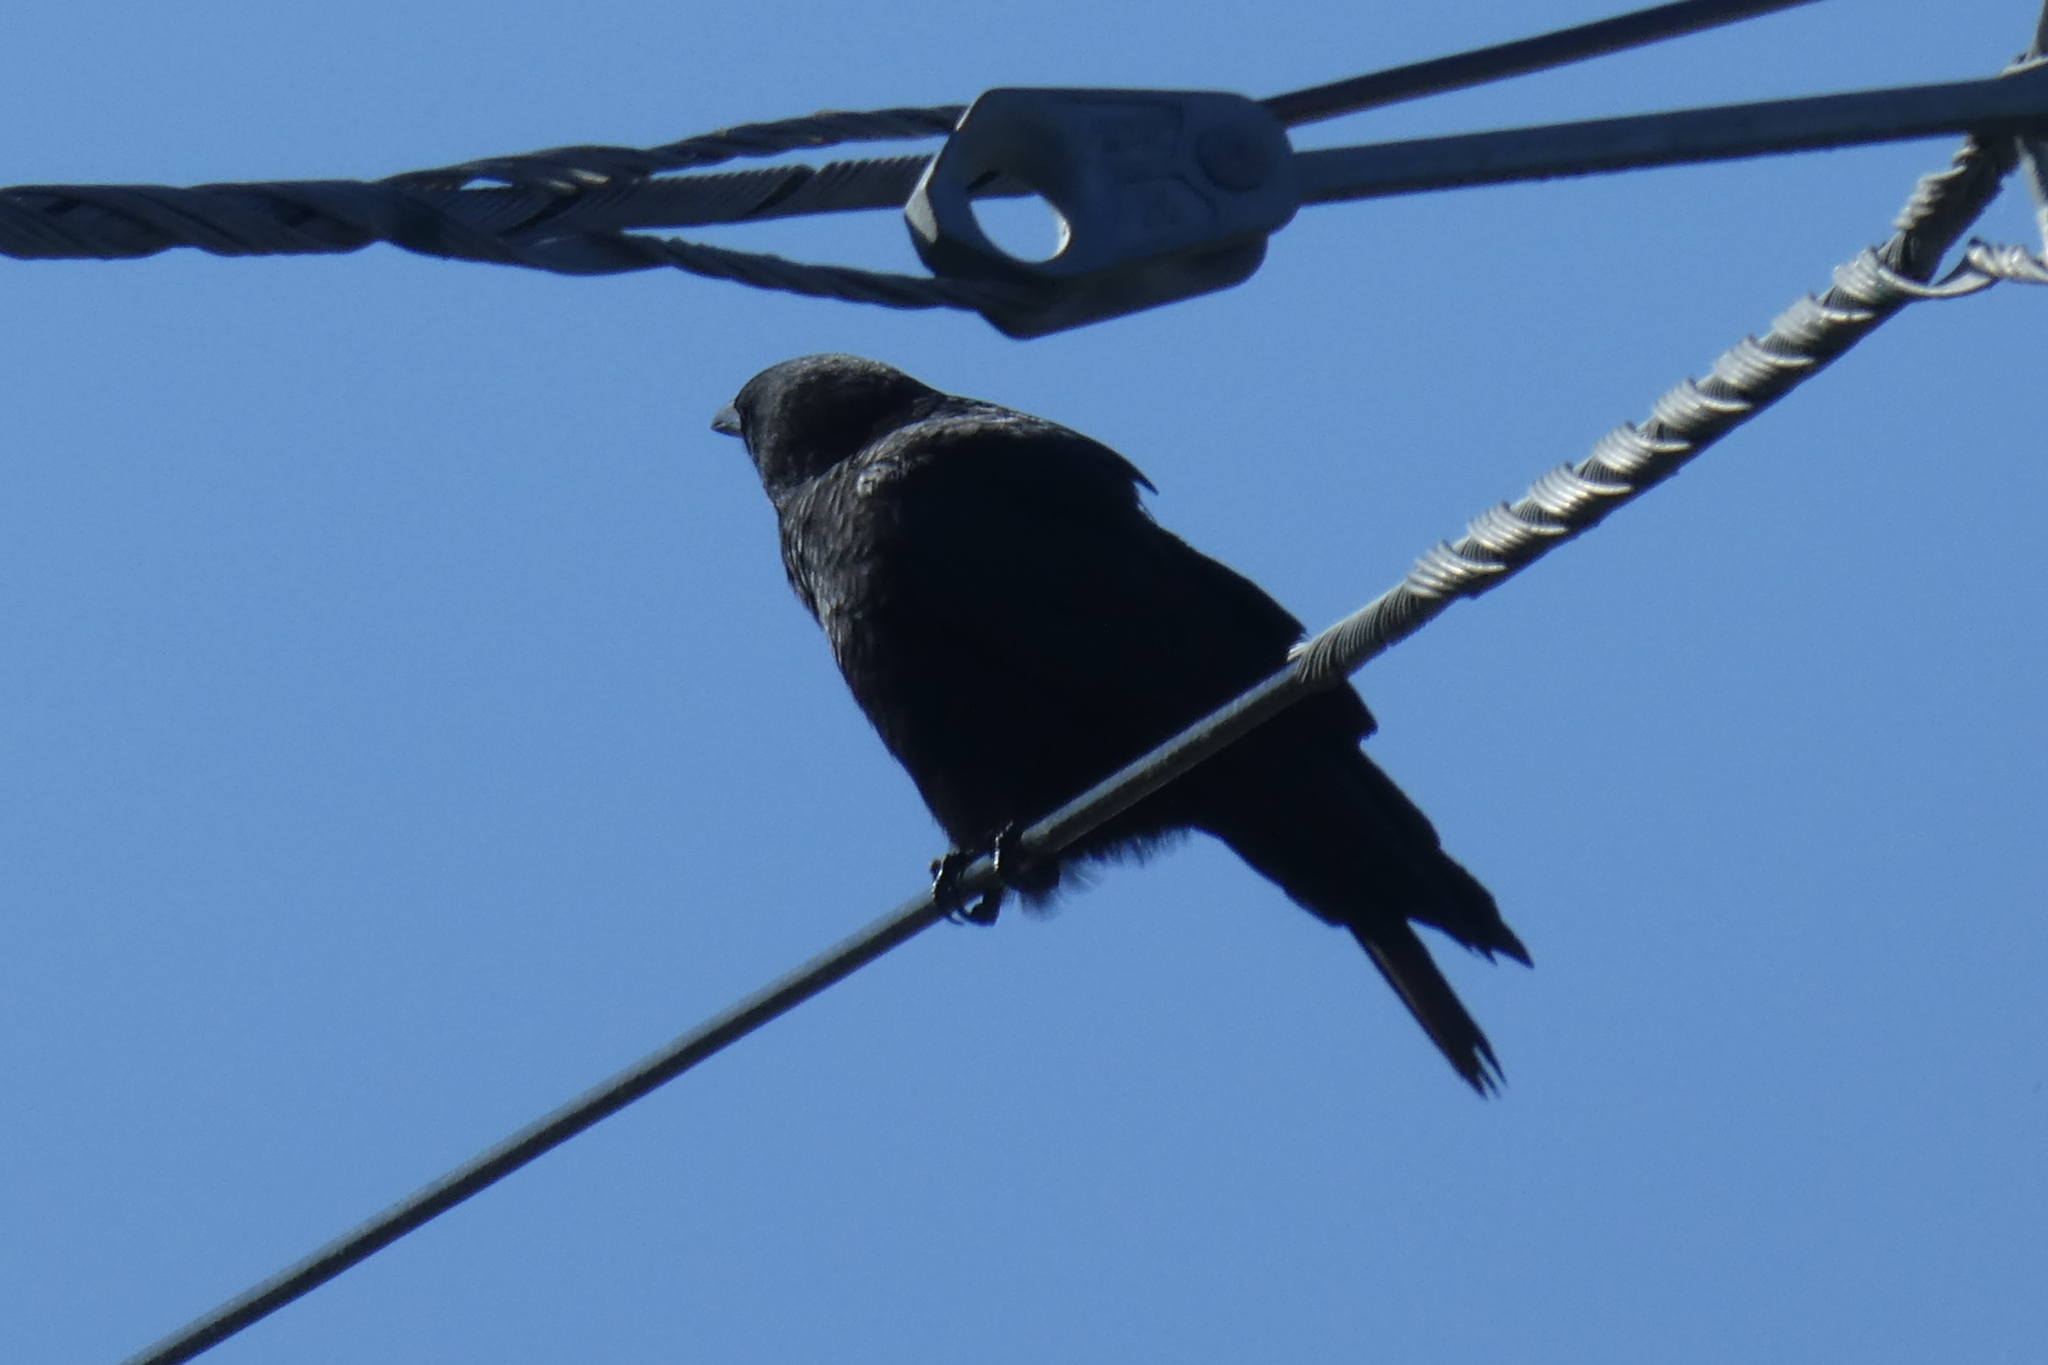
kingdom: Animalia
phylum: Chordata
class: Aves
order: Passeriformes
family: Corvidae
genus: Corvus
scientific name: Corvus brachyrhynchos
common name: American crow
